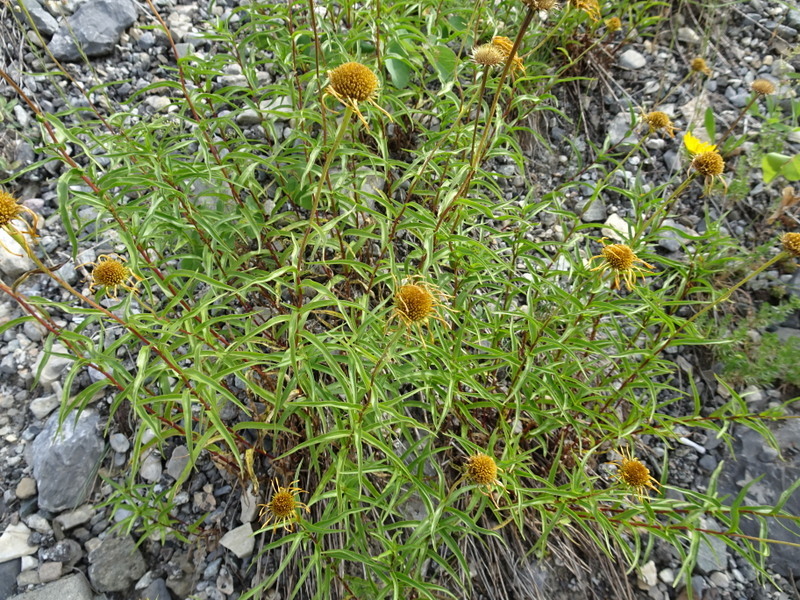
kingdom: Plantae
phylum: Tracheophyta
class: Magnoliopsida
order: Asterales
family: Asteraceae
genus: Buphthalmum
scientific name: Buphthalmum salicifolium
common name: Willow-leaved yellow-oxeye
